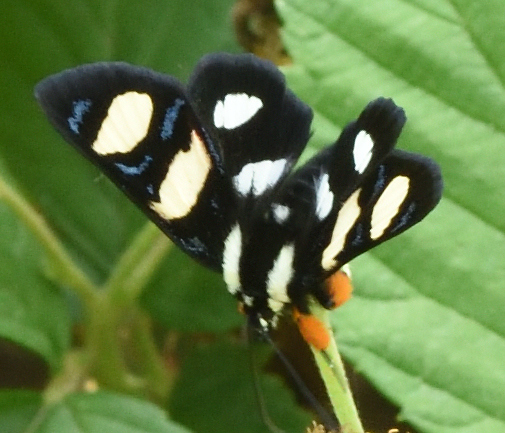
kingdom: Animalia
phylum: Arthropoda
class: Insecta
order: Lepidoptera
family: Noctuidae
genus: Alypia
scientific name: Alypia wittfeldii
